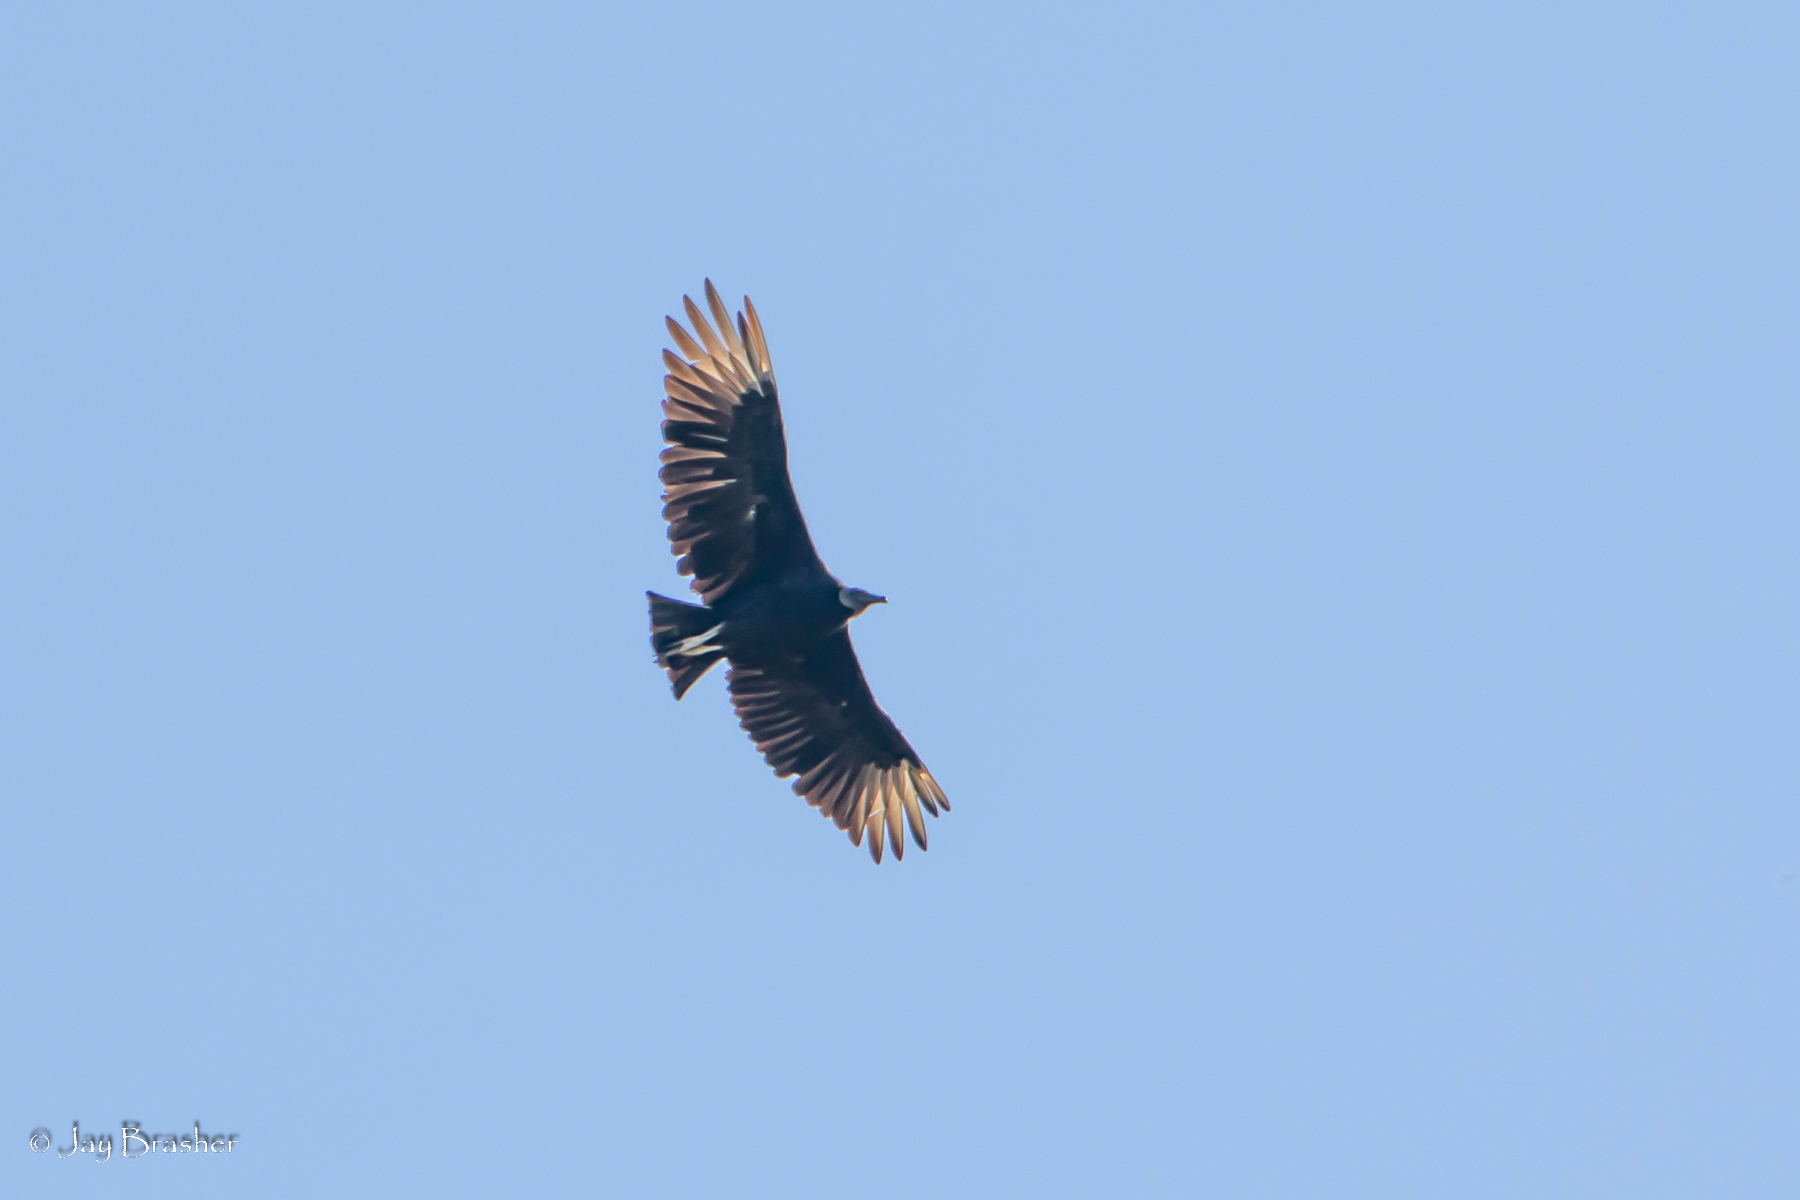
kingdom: Animalia
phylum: Chordata
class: Aves
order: Accipitriformes
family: Cathartidae
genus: Coragyps
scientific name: Coragyps atratus
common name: Black vulture
